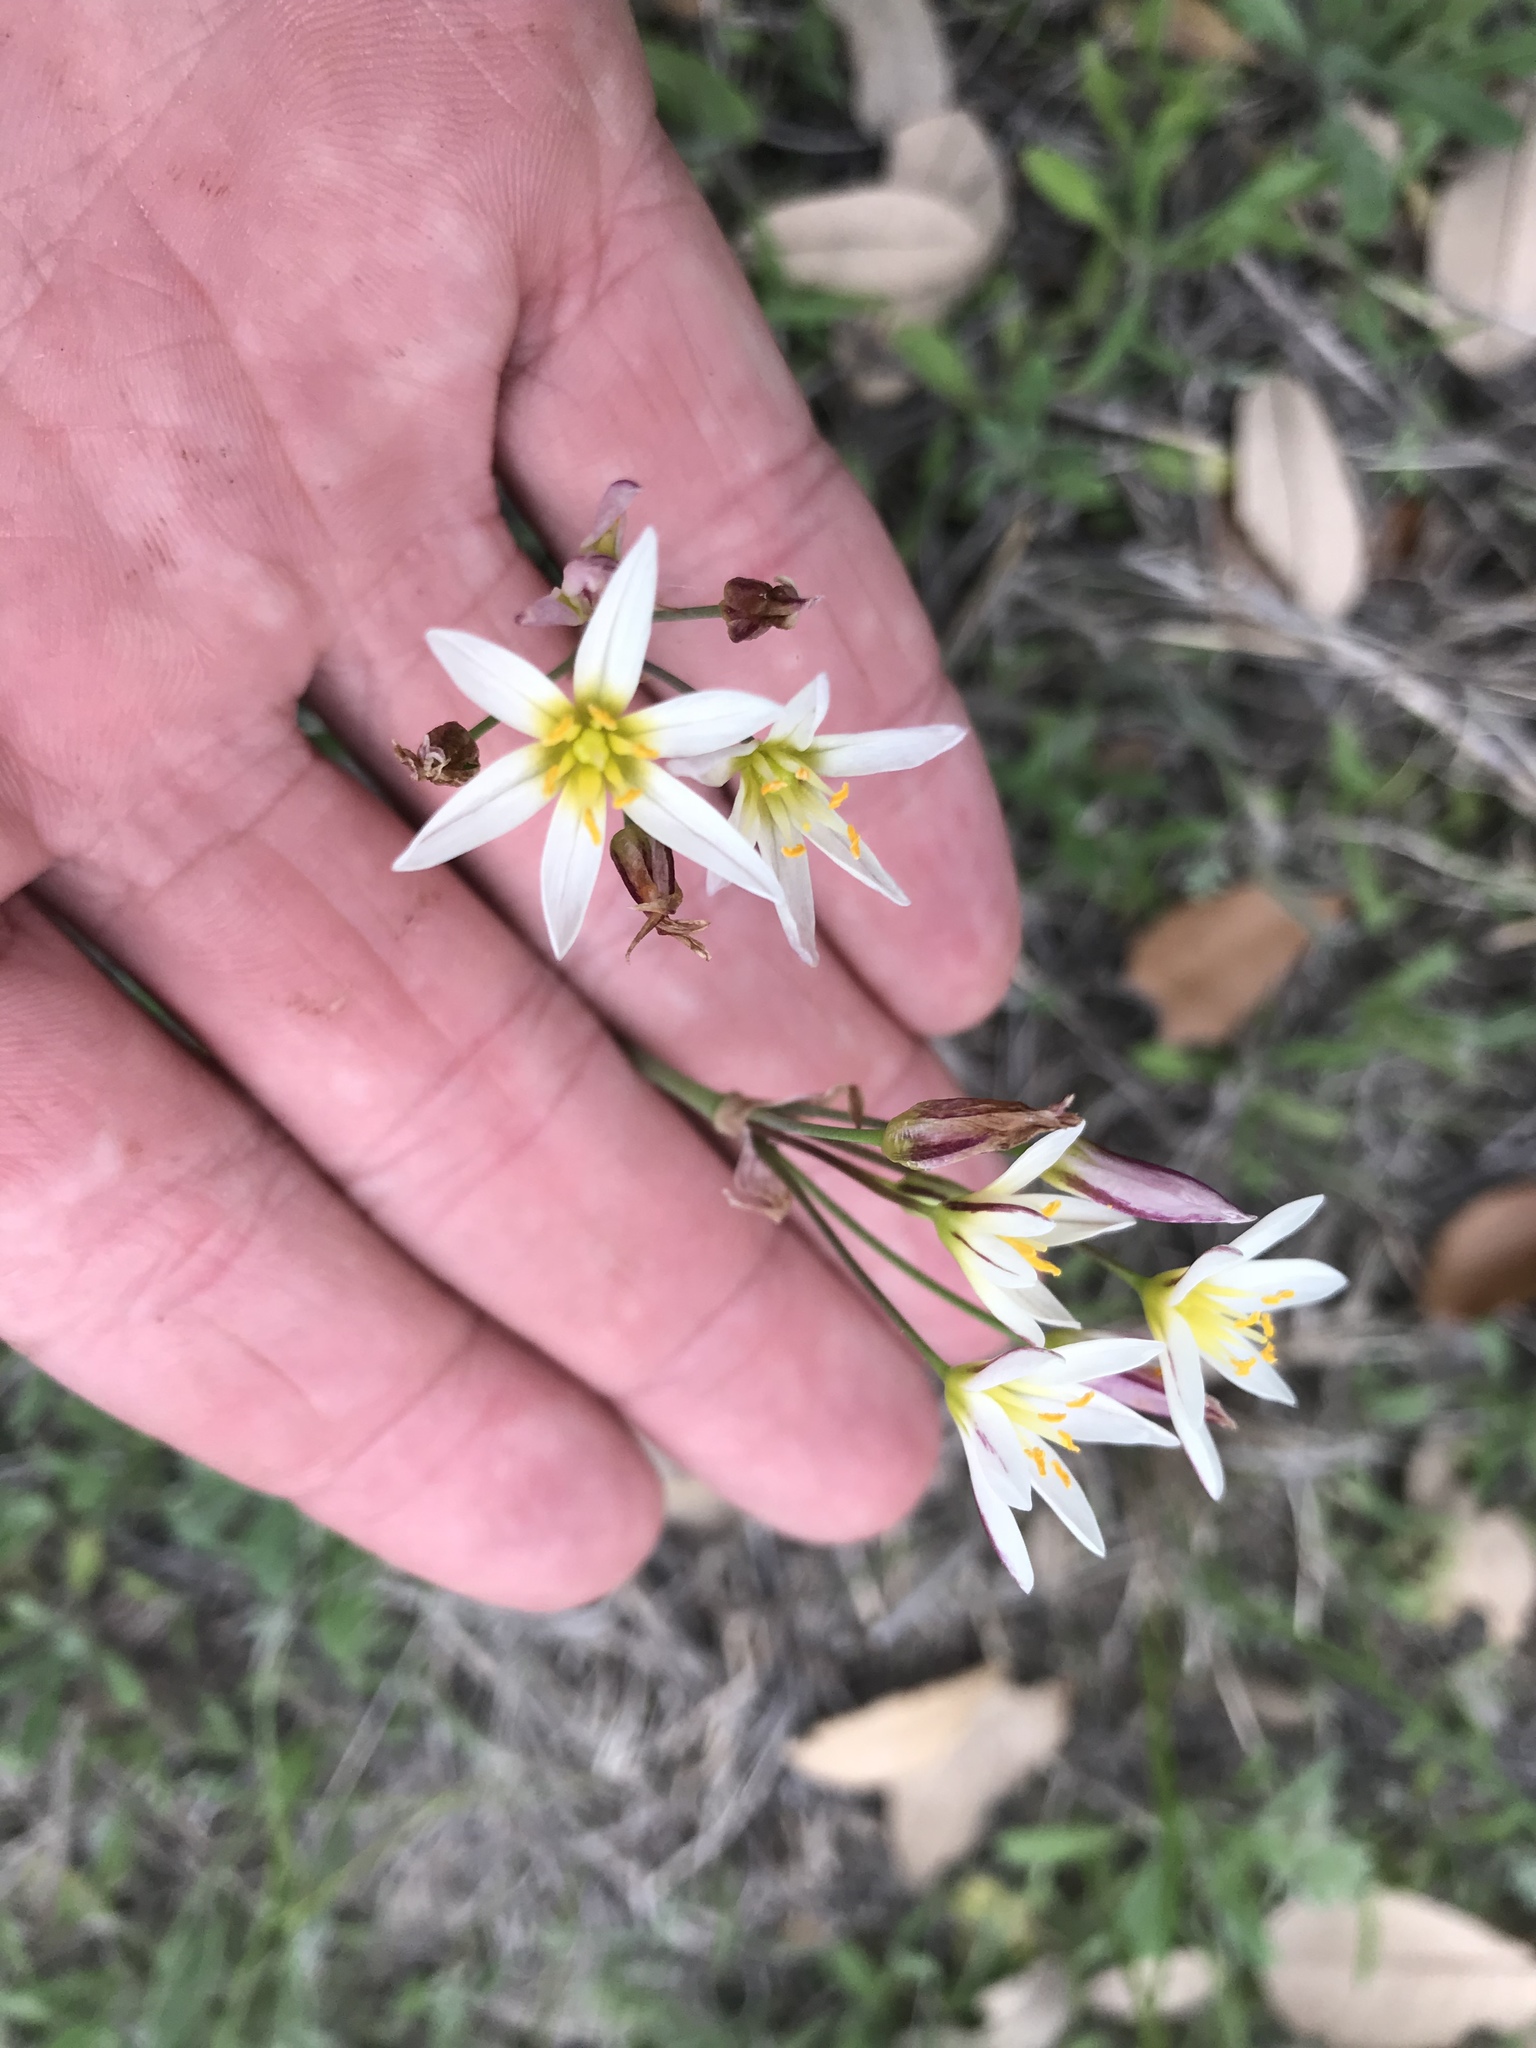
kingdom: Plantae
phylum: Tracheophyta
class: Liliopsida
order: Asparagales
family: Amaryllidaceae
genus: Nothoscordum
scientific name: Nothoscordum bivalve
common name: Crow-poison
